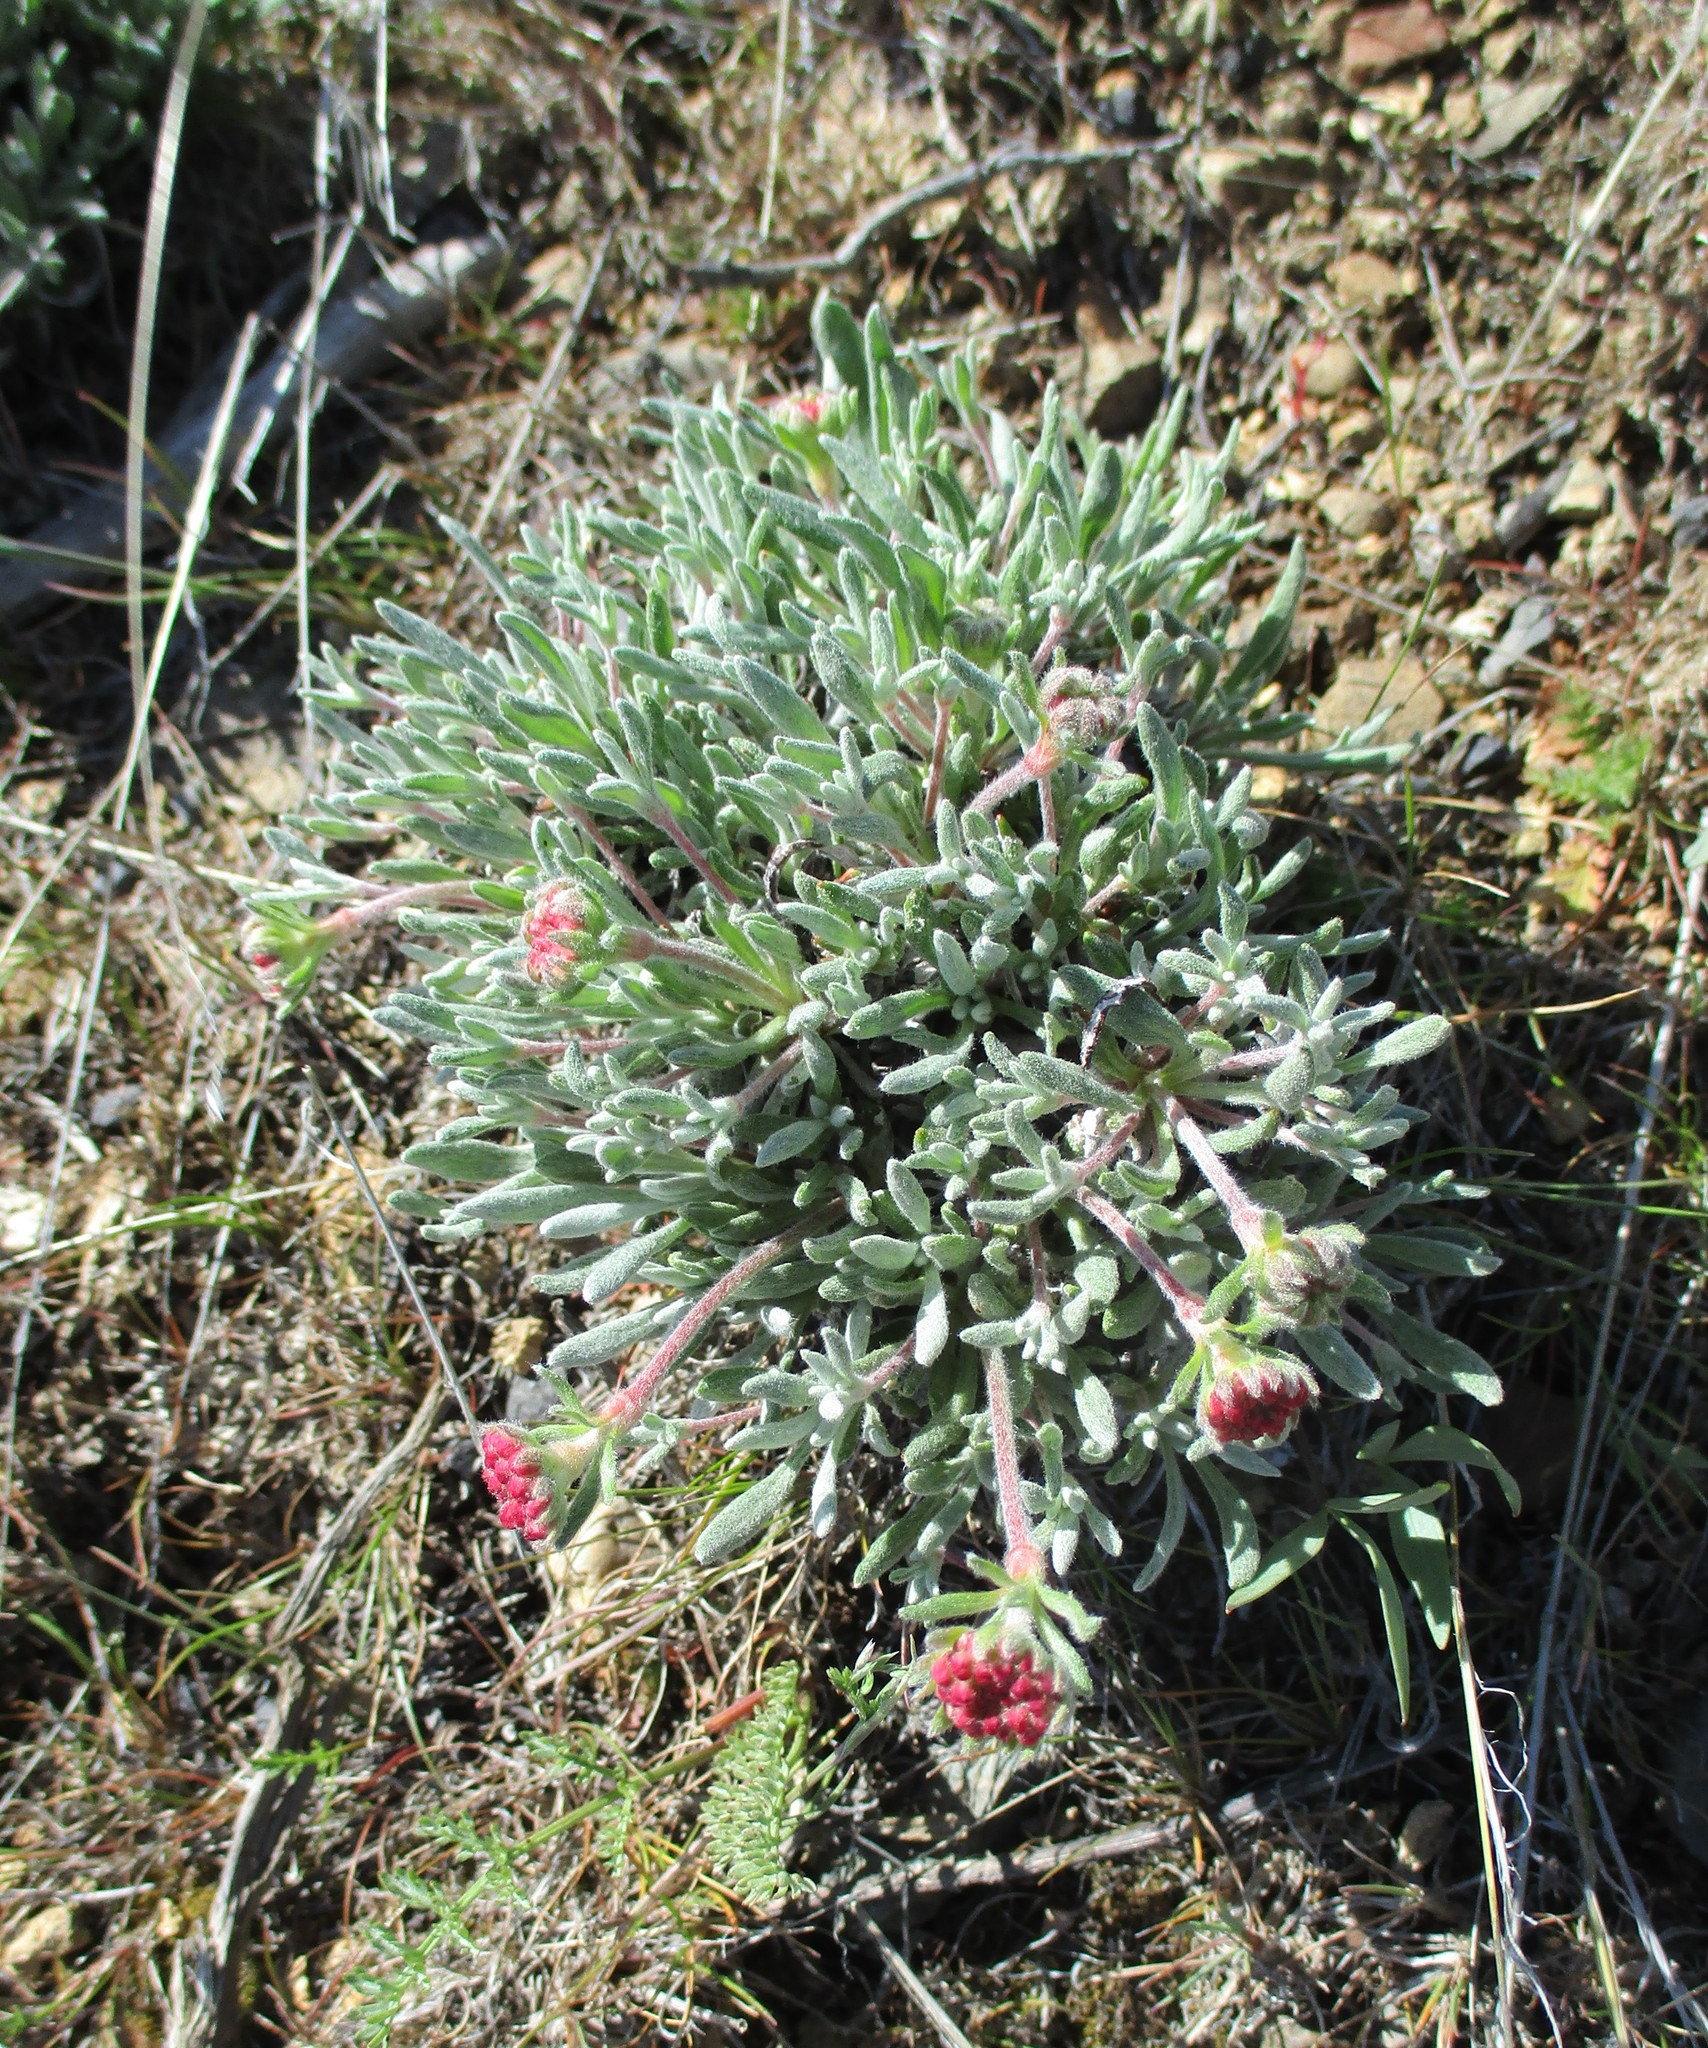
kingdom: Plantae
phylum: Tracheophyta
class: Magnoliopsida
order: Caryophyllales
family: Polygonaceae
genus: Eriogonum
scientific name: Eriogonum thymoides
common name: Thyme-leaf wild buckwheat
